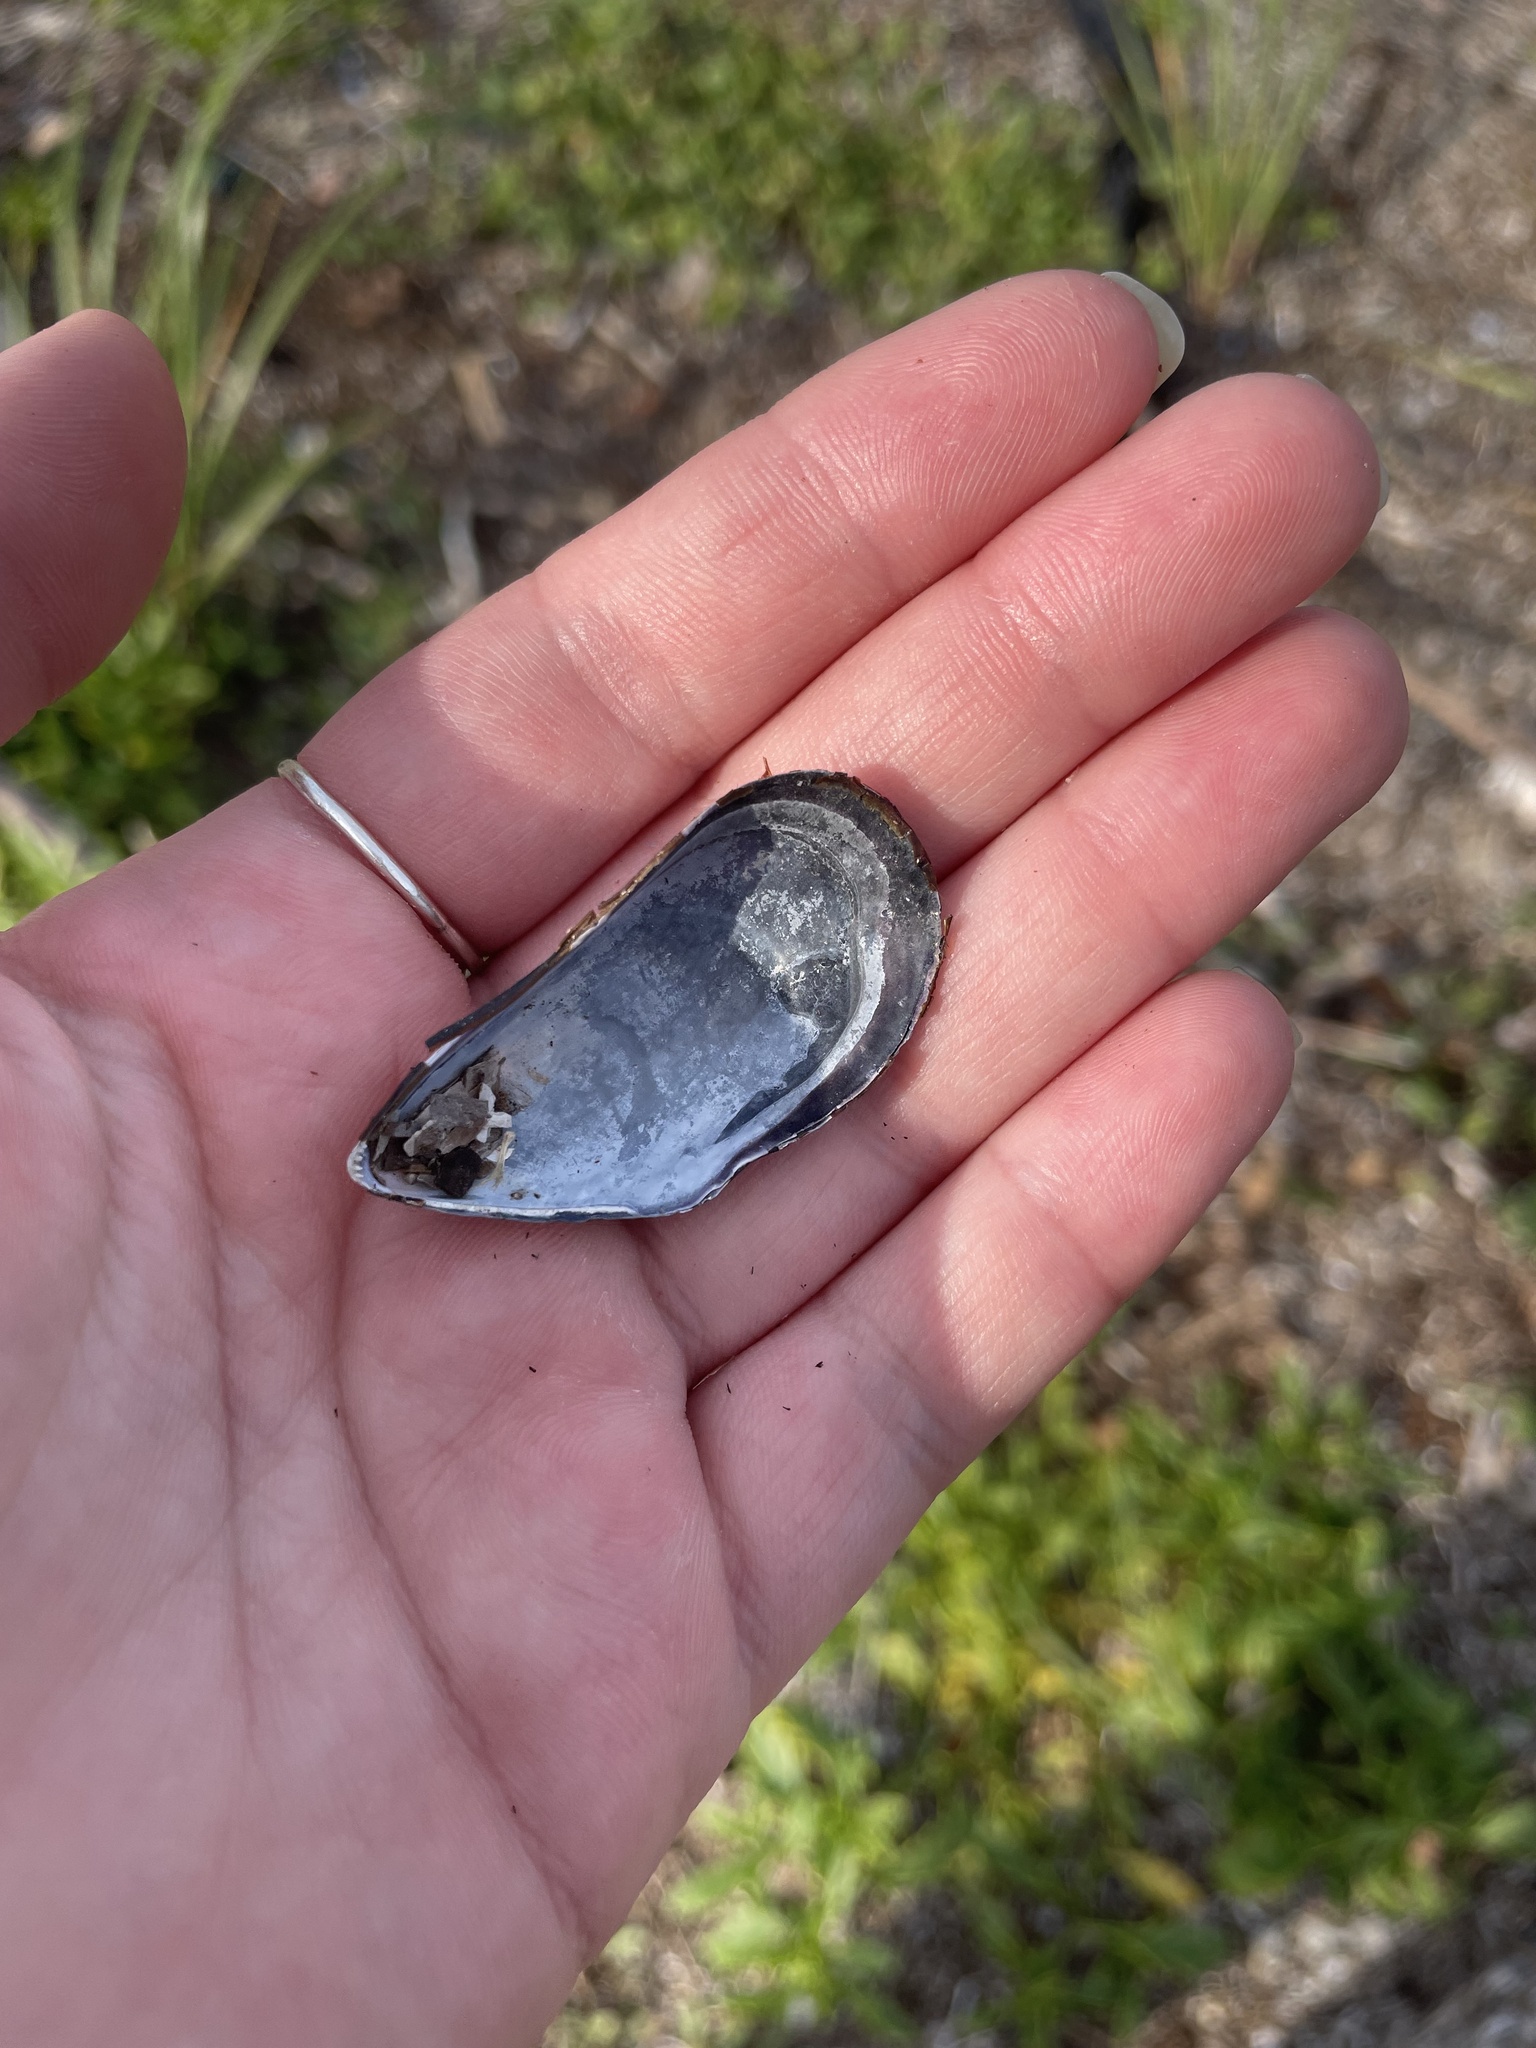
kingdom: Animalia
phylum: Mollusca
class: Bivalvia
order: Mytilida
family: Mytilidae
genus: Mytilus
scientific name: Mytilus
